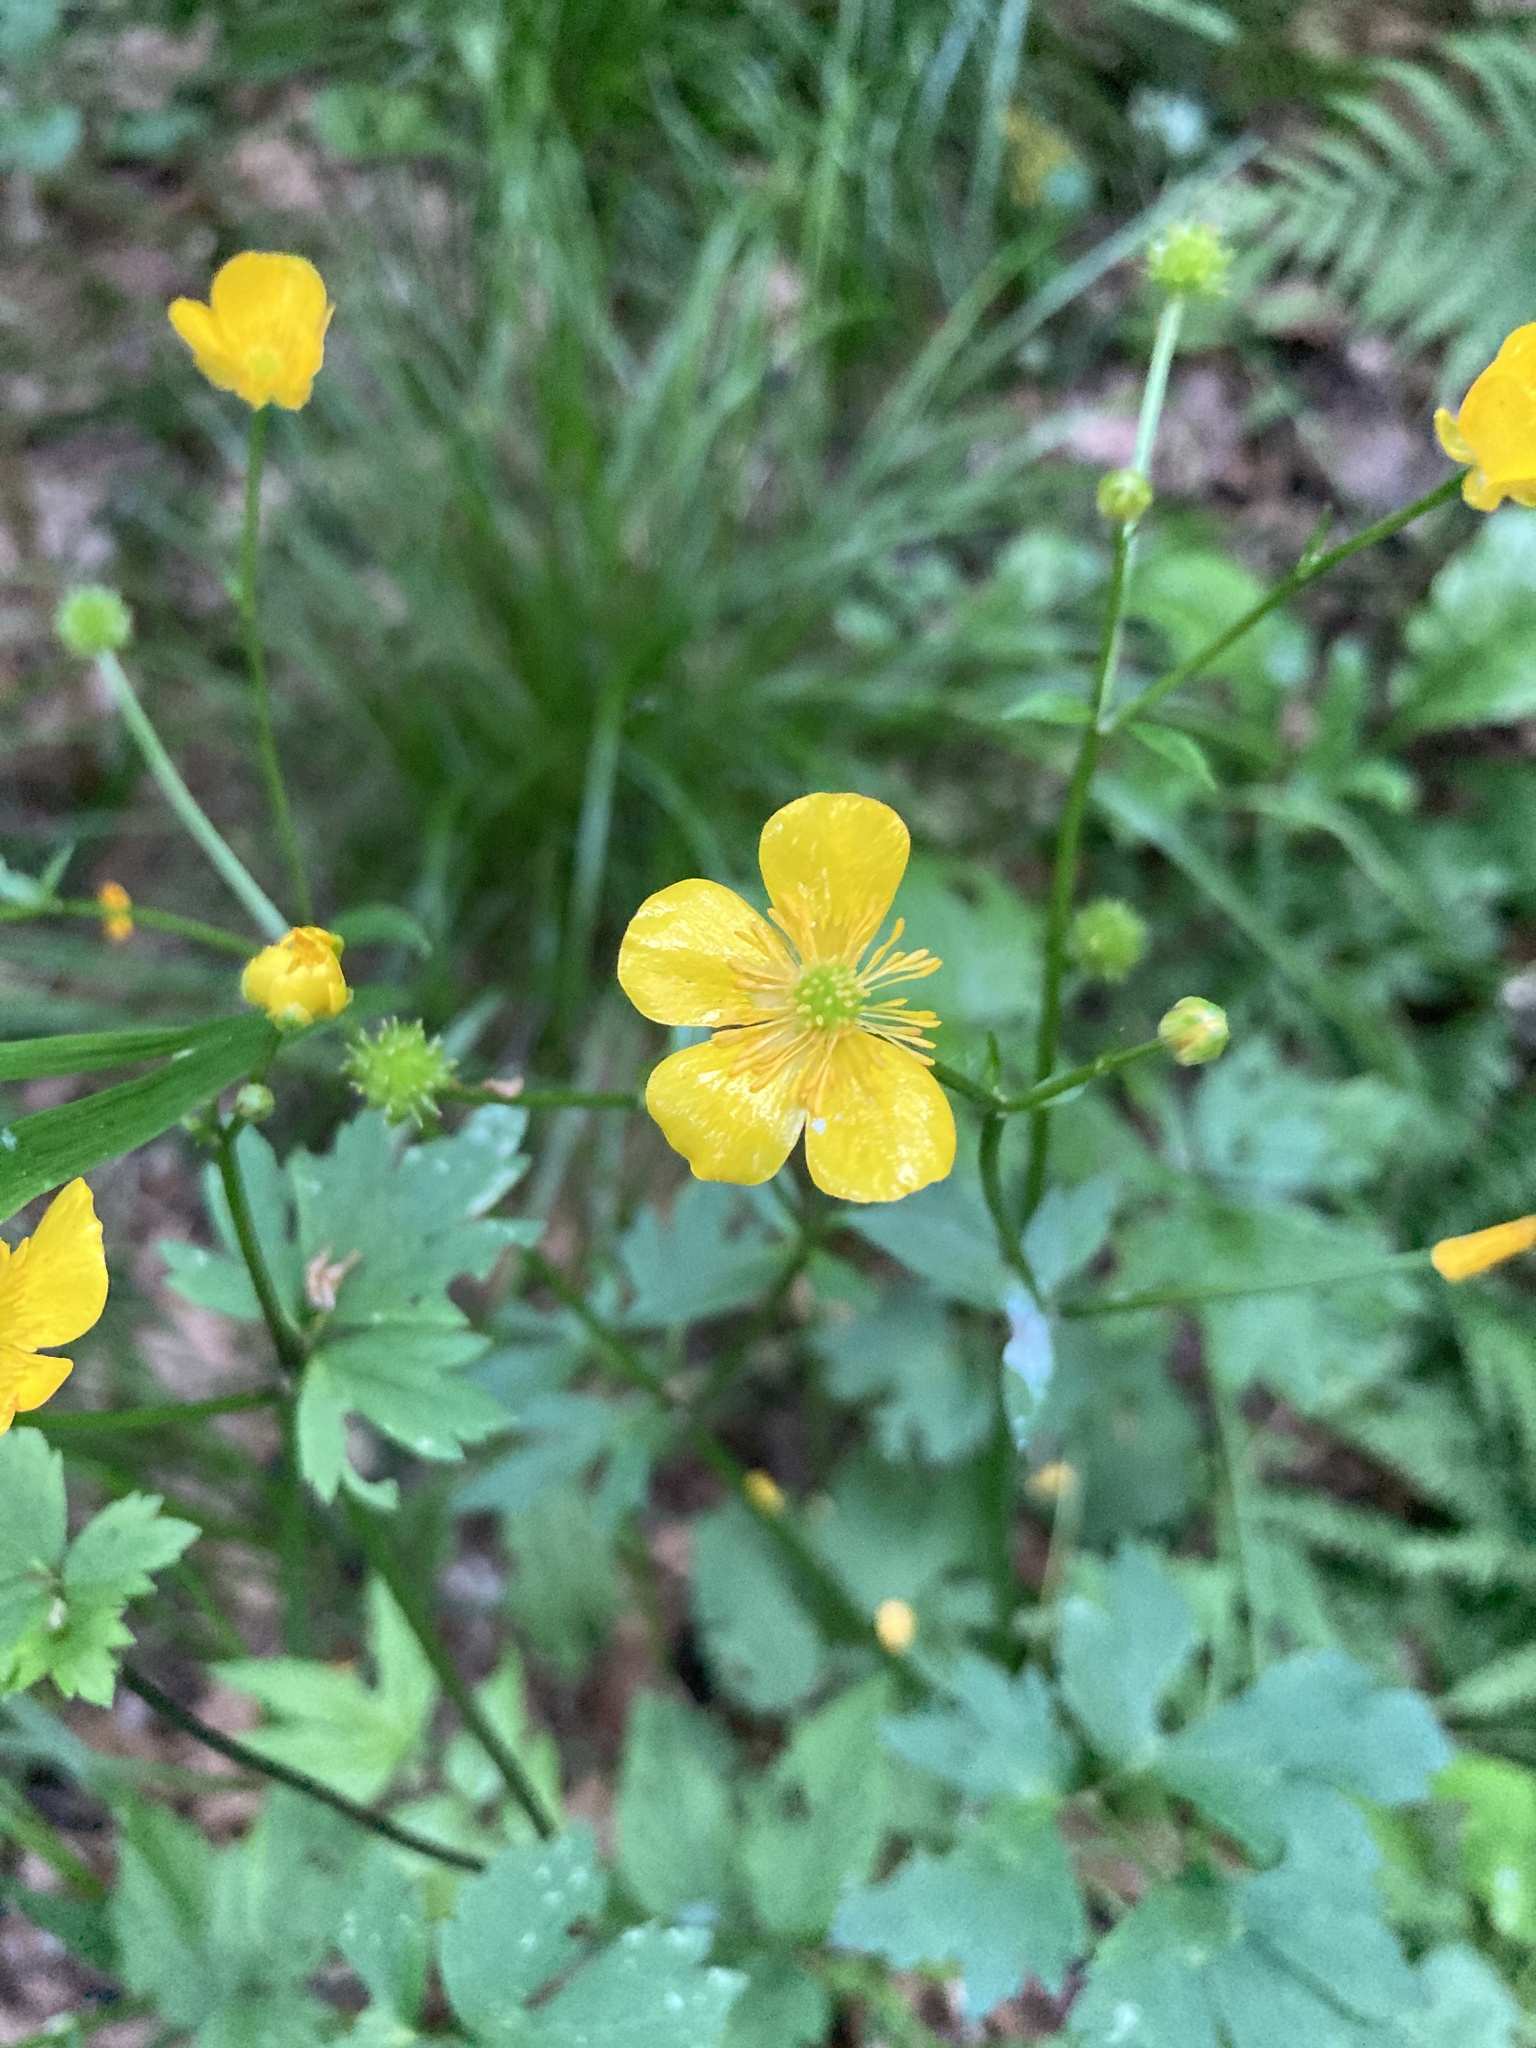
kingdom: Plantae
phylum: Tracheophyta
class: Magnoliopsida
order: Ranunculales
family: Ranunculaceae
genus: Ranunculus
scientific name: Ranunculus repens
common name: Creeping buttercup
